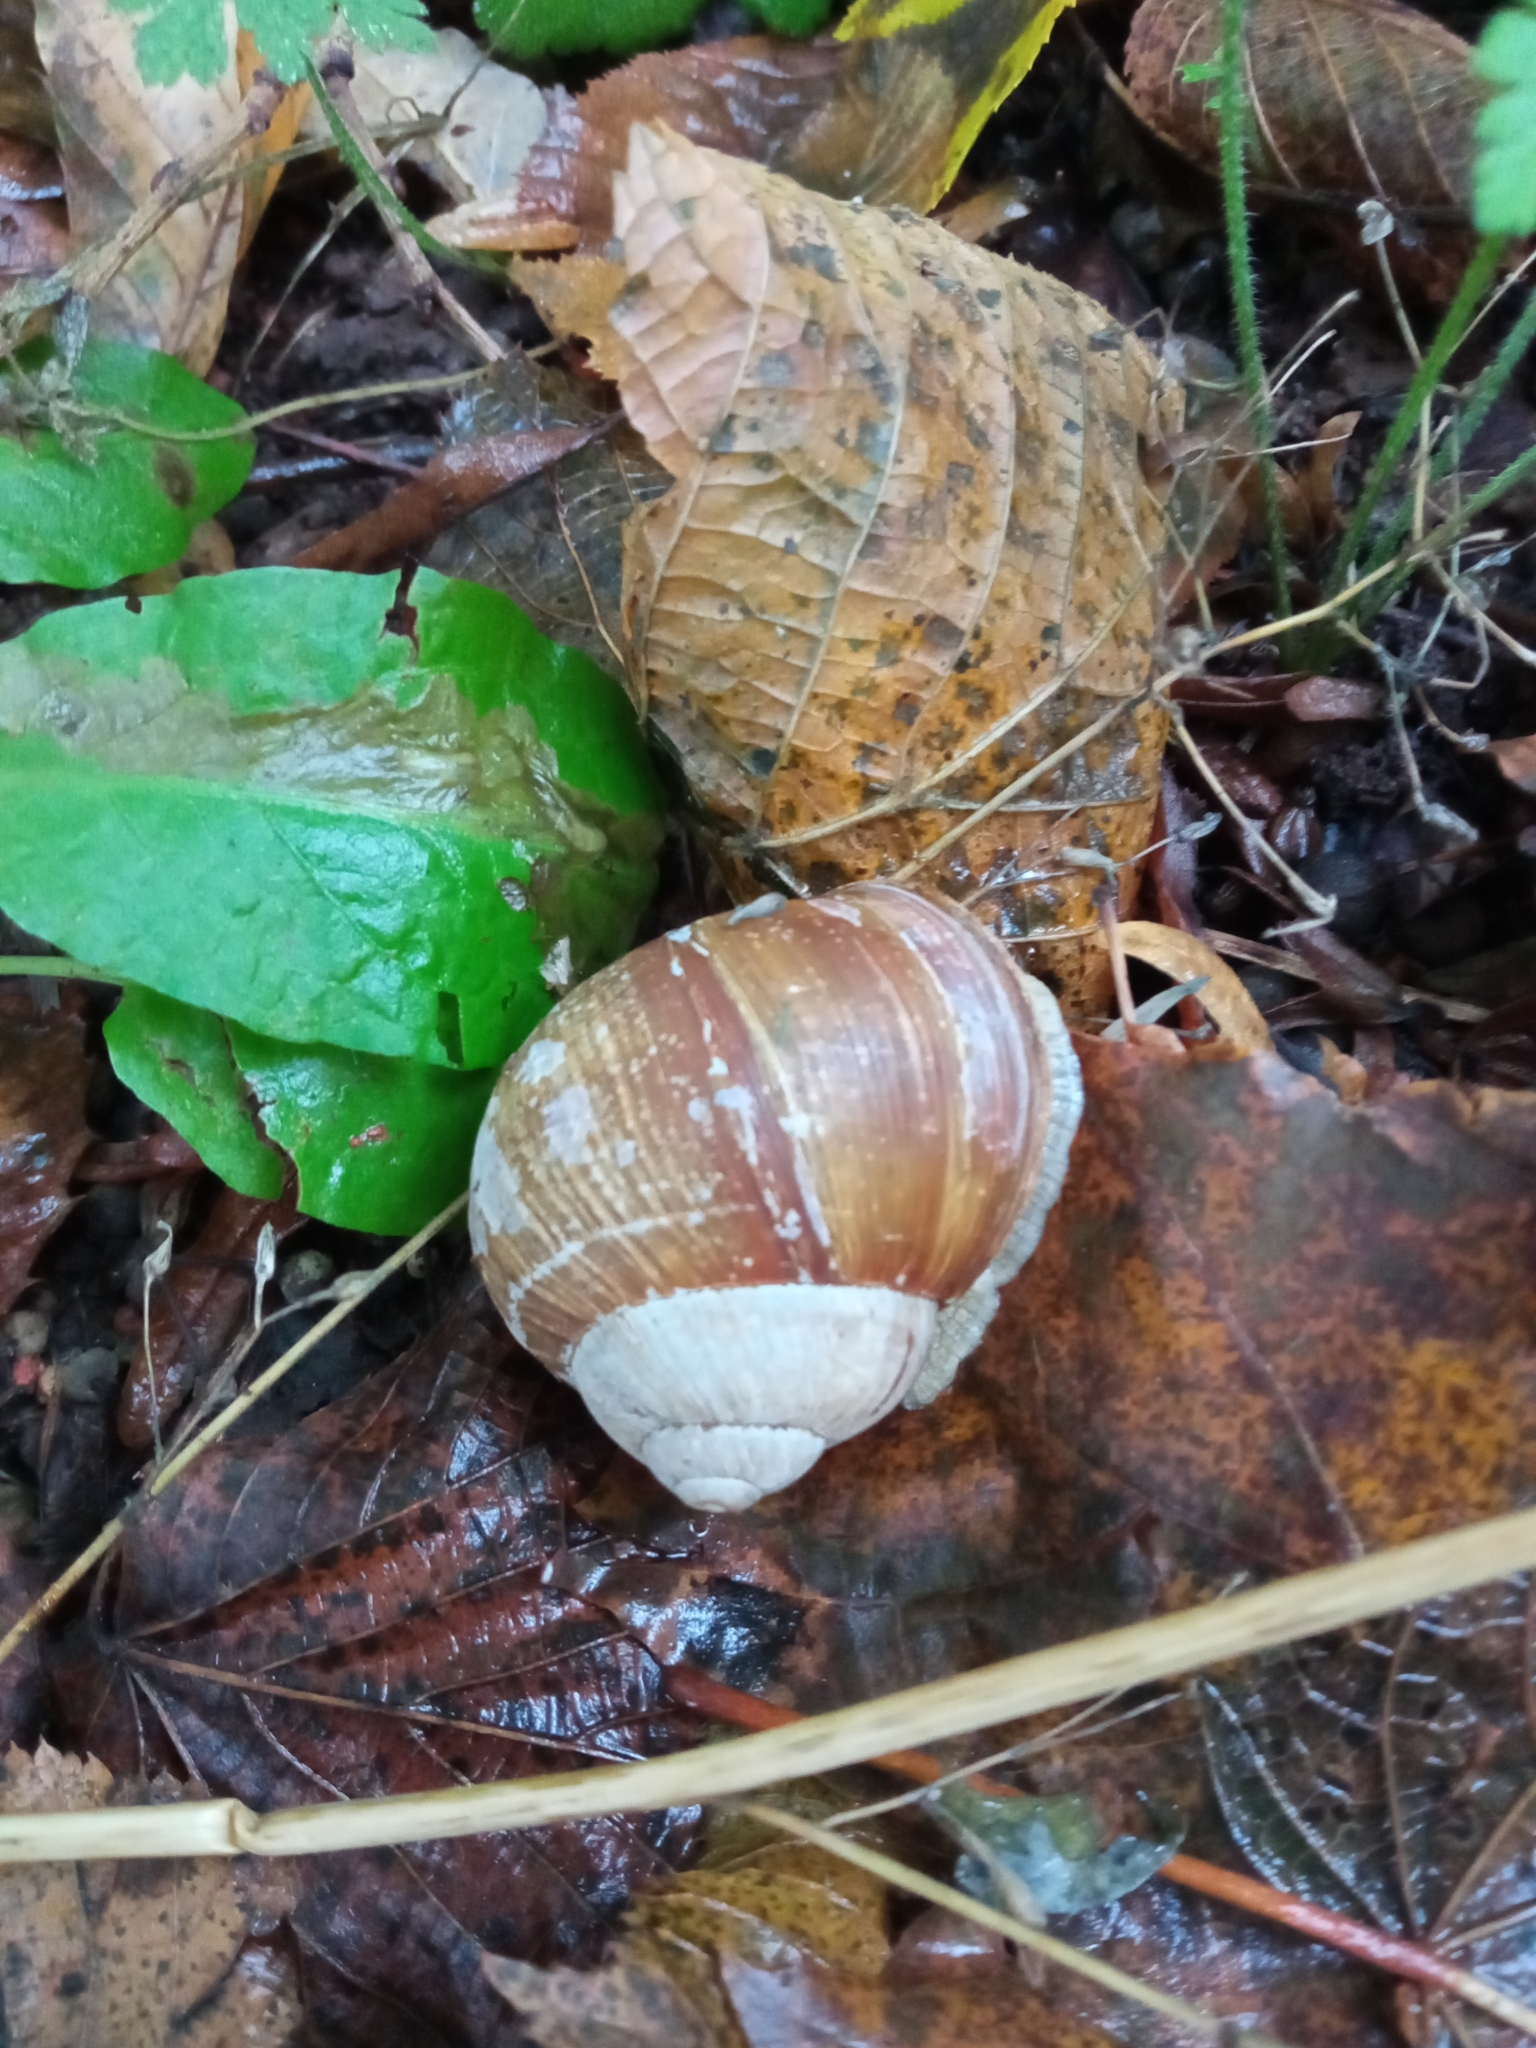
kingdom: Animalia
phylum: Mollusca
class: Gastropoda
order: Stylommatophora
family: Helicidae
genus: Helix
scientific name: Helix pomatia
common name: Roman snail
